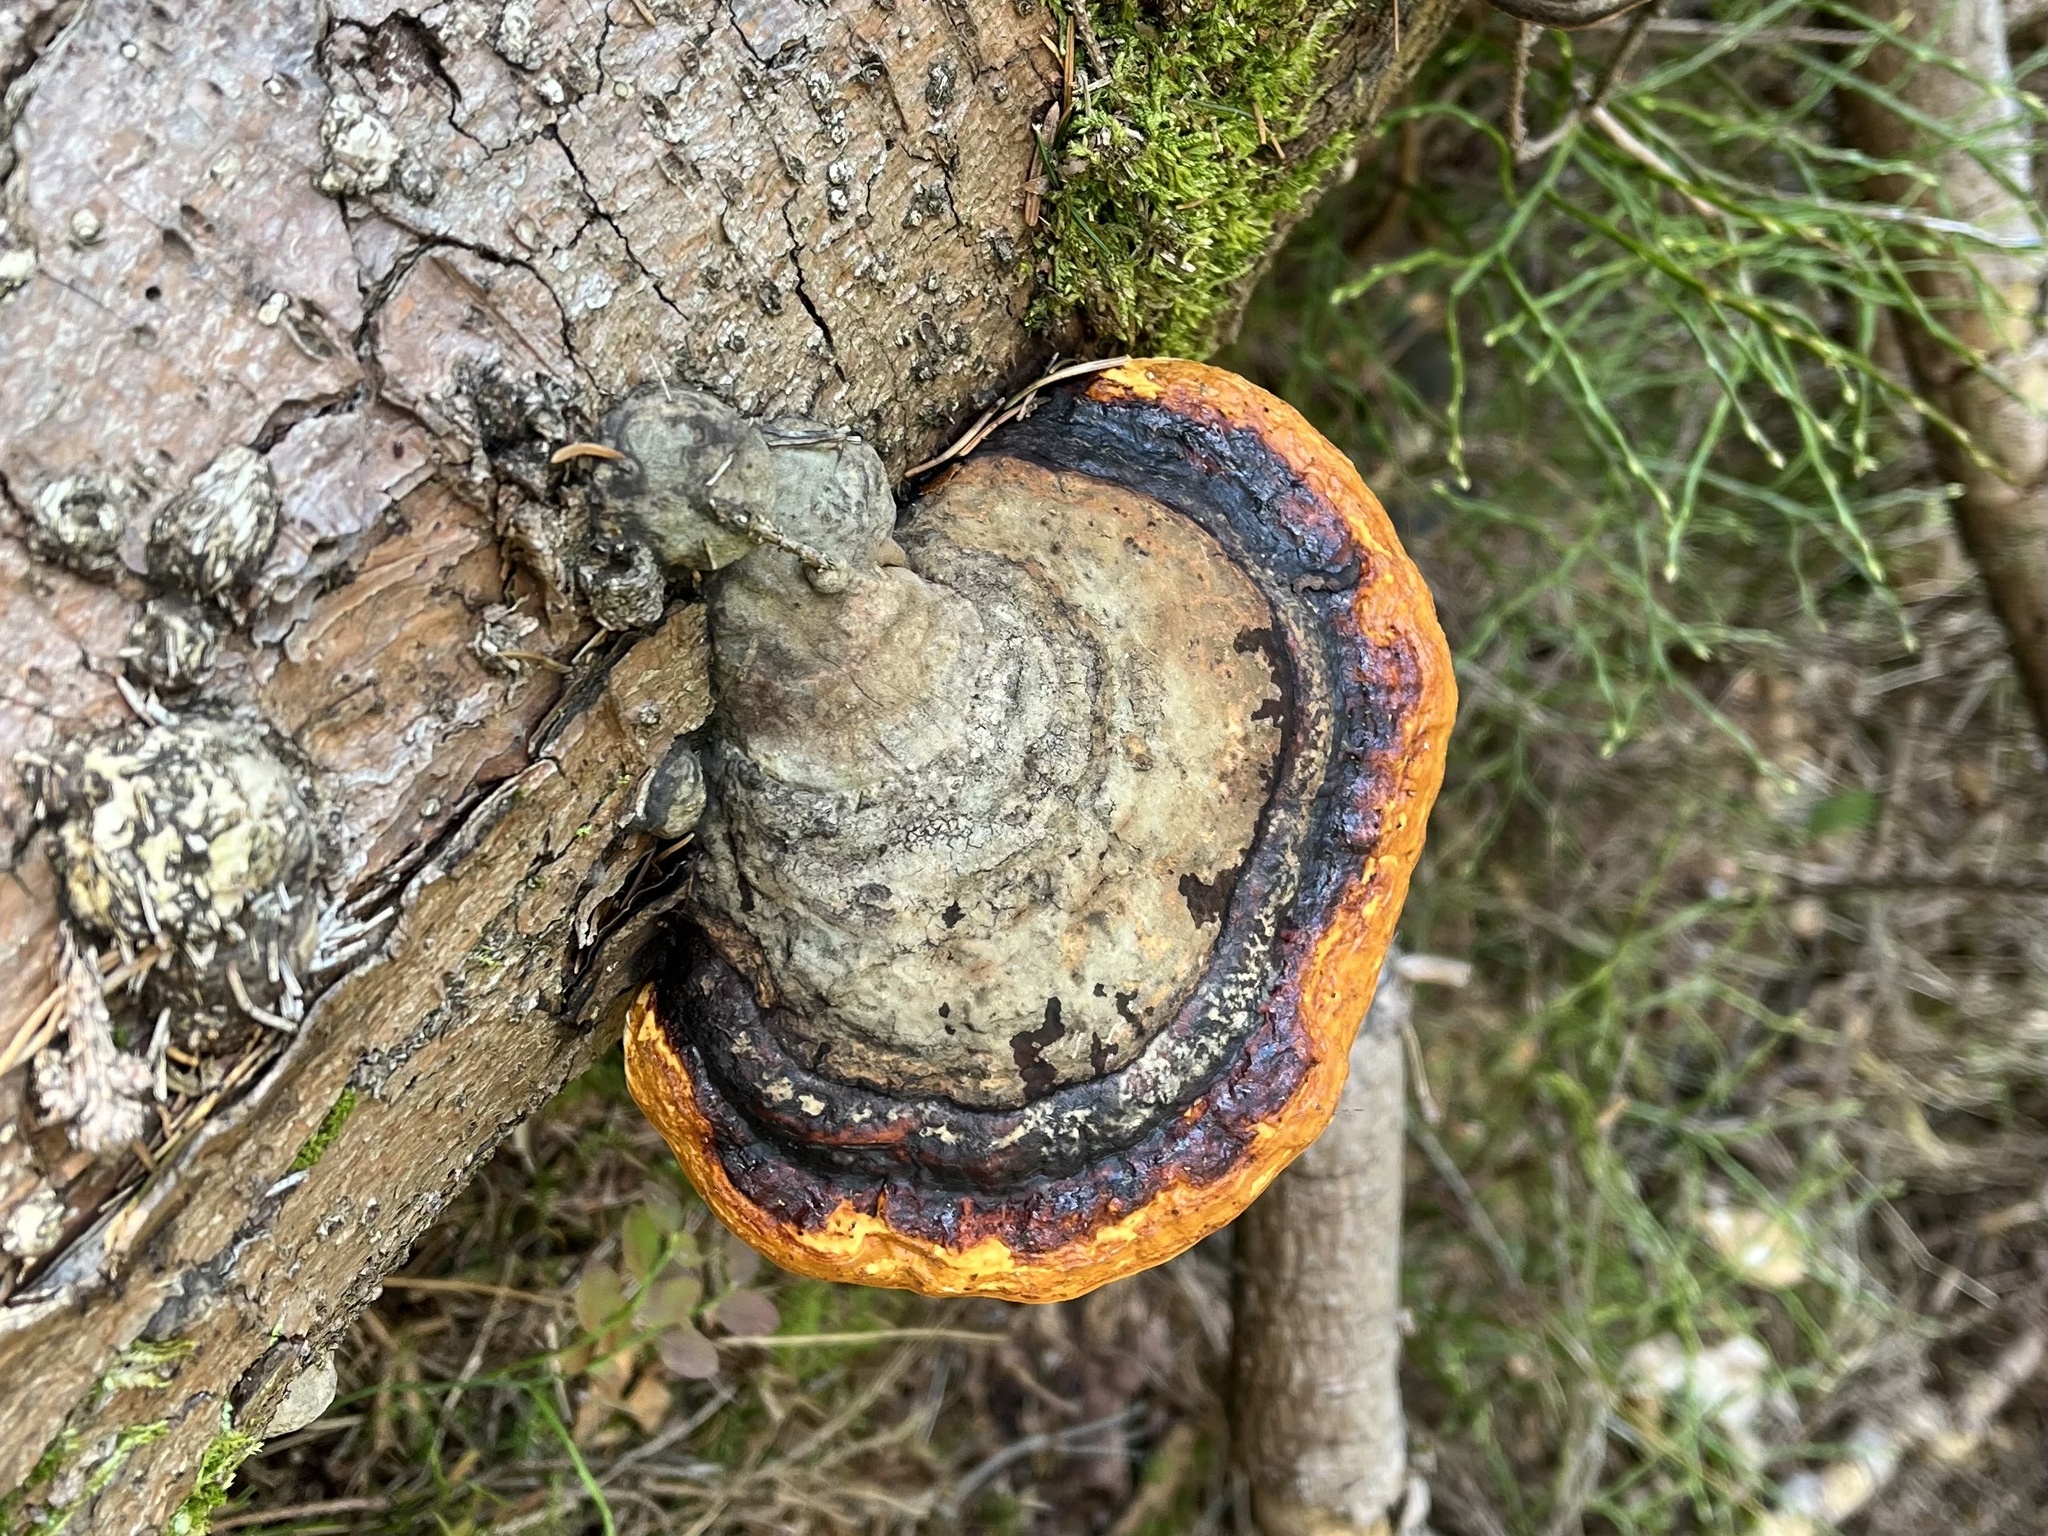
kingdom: Fungi
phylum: Basidiomycota
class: Agaricomycetes
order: Polyporales
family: Fomitopsidaceae
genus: Fomitopsis
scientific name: Fomitopsis pinicola
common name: Red-belted bracket
